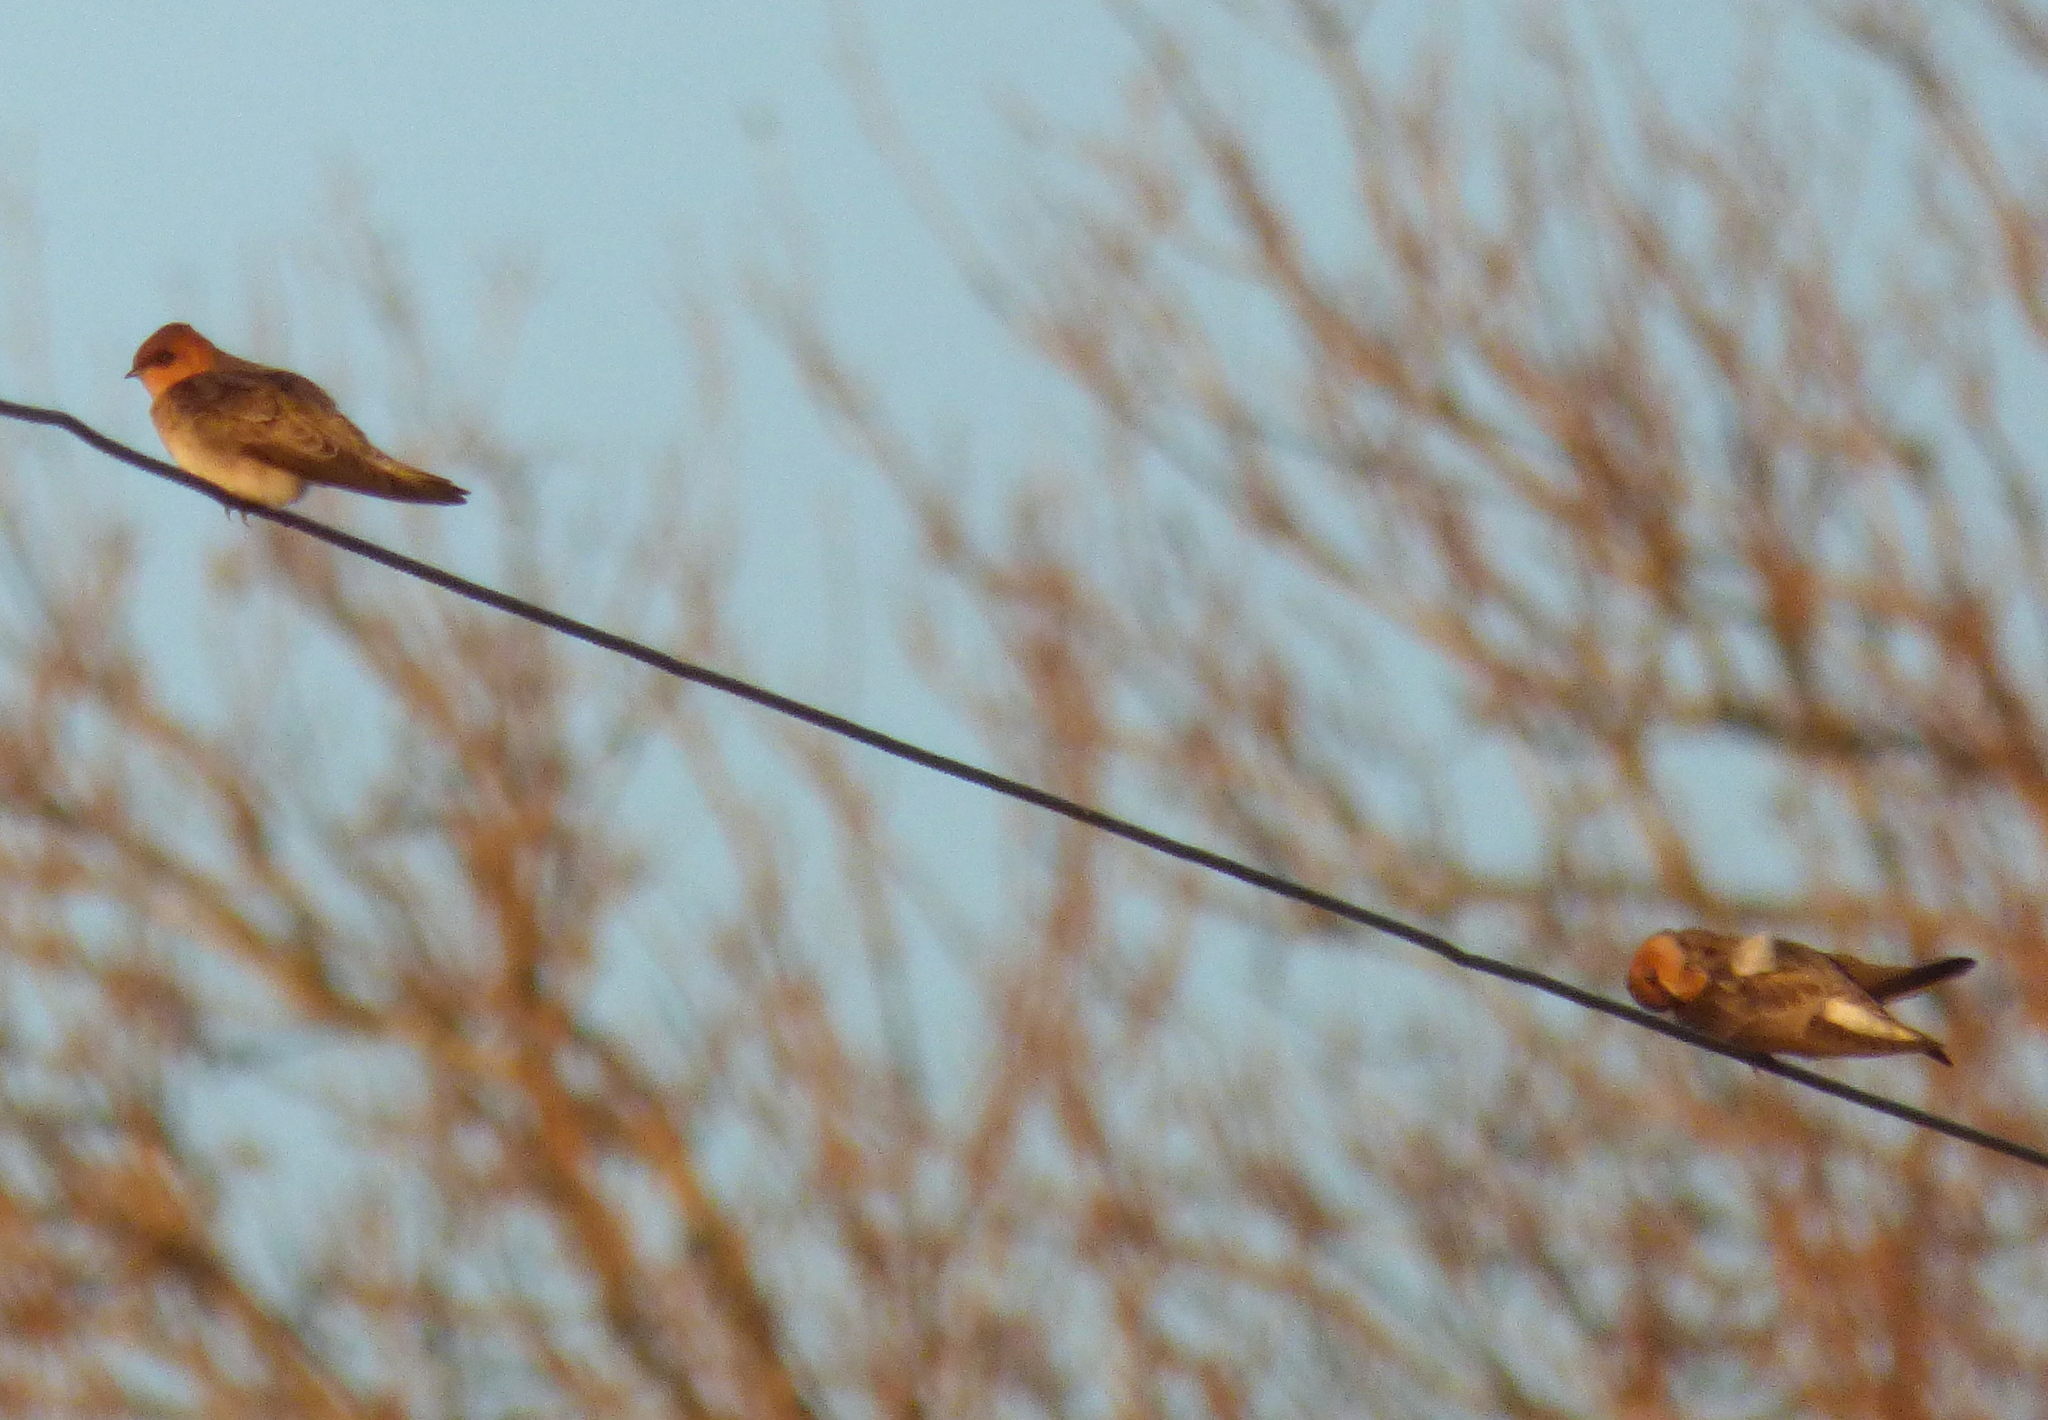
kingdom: Animalia
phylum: Chordata
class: Aves
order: Passeriformes
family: Hirundinidae
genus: Alopochelidon
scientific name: Alopochelidon fucata
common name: Tawny-headed swallow
